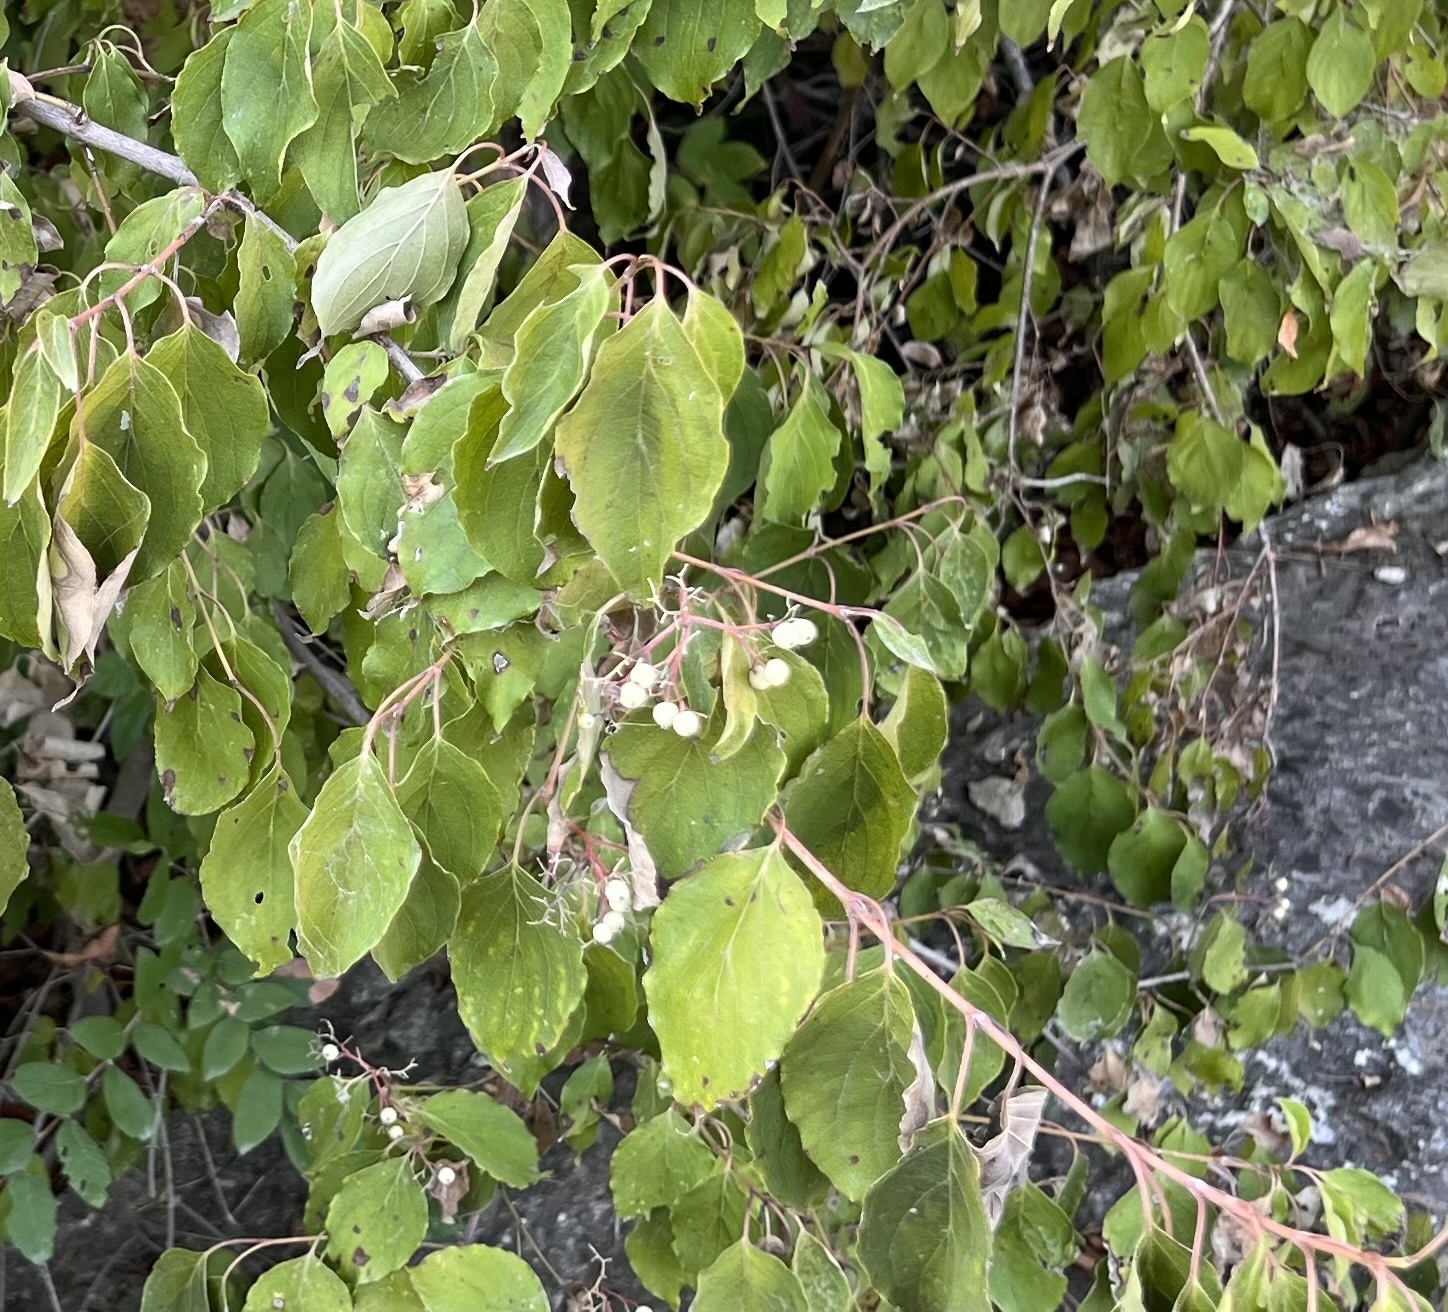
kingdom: Plantae
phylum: Tracheophyta
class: Magnoliopsida
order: Cornales
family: Cornaceae
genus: Cornus
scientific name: Cornus drummondii
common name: Rough-leaf dogwood
